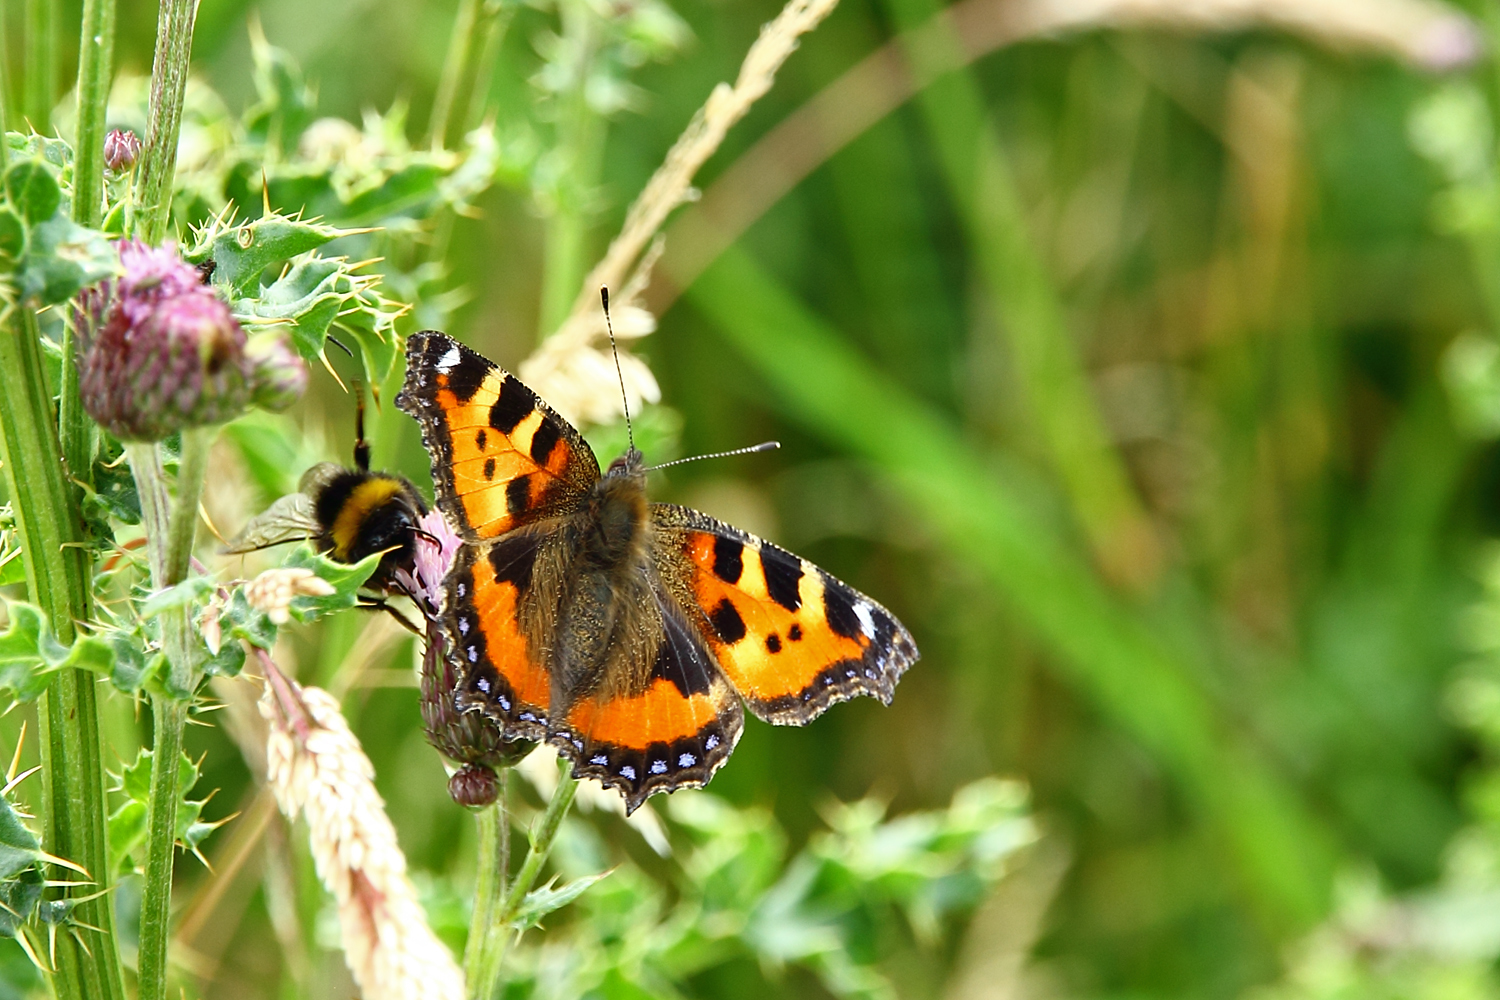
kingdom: Animalia
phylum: Arthropoda
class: Insecta
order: Lepidoptera
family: Nymphalidae
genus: Aglais
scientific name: Aglais urticae
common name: Small tortoiseshell
